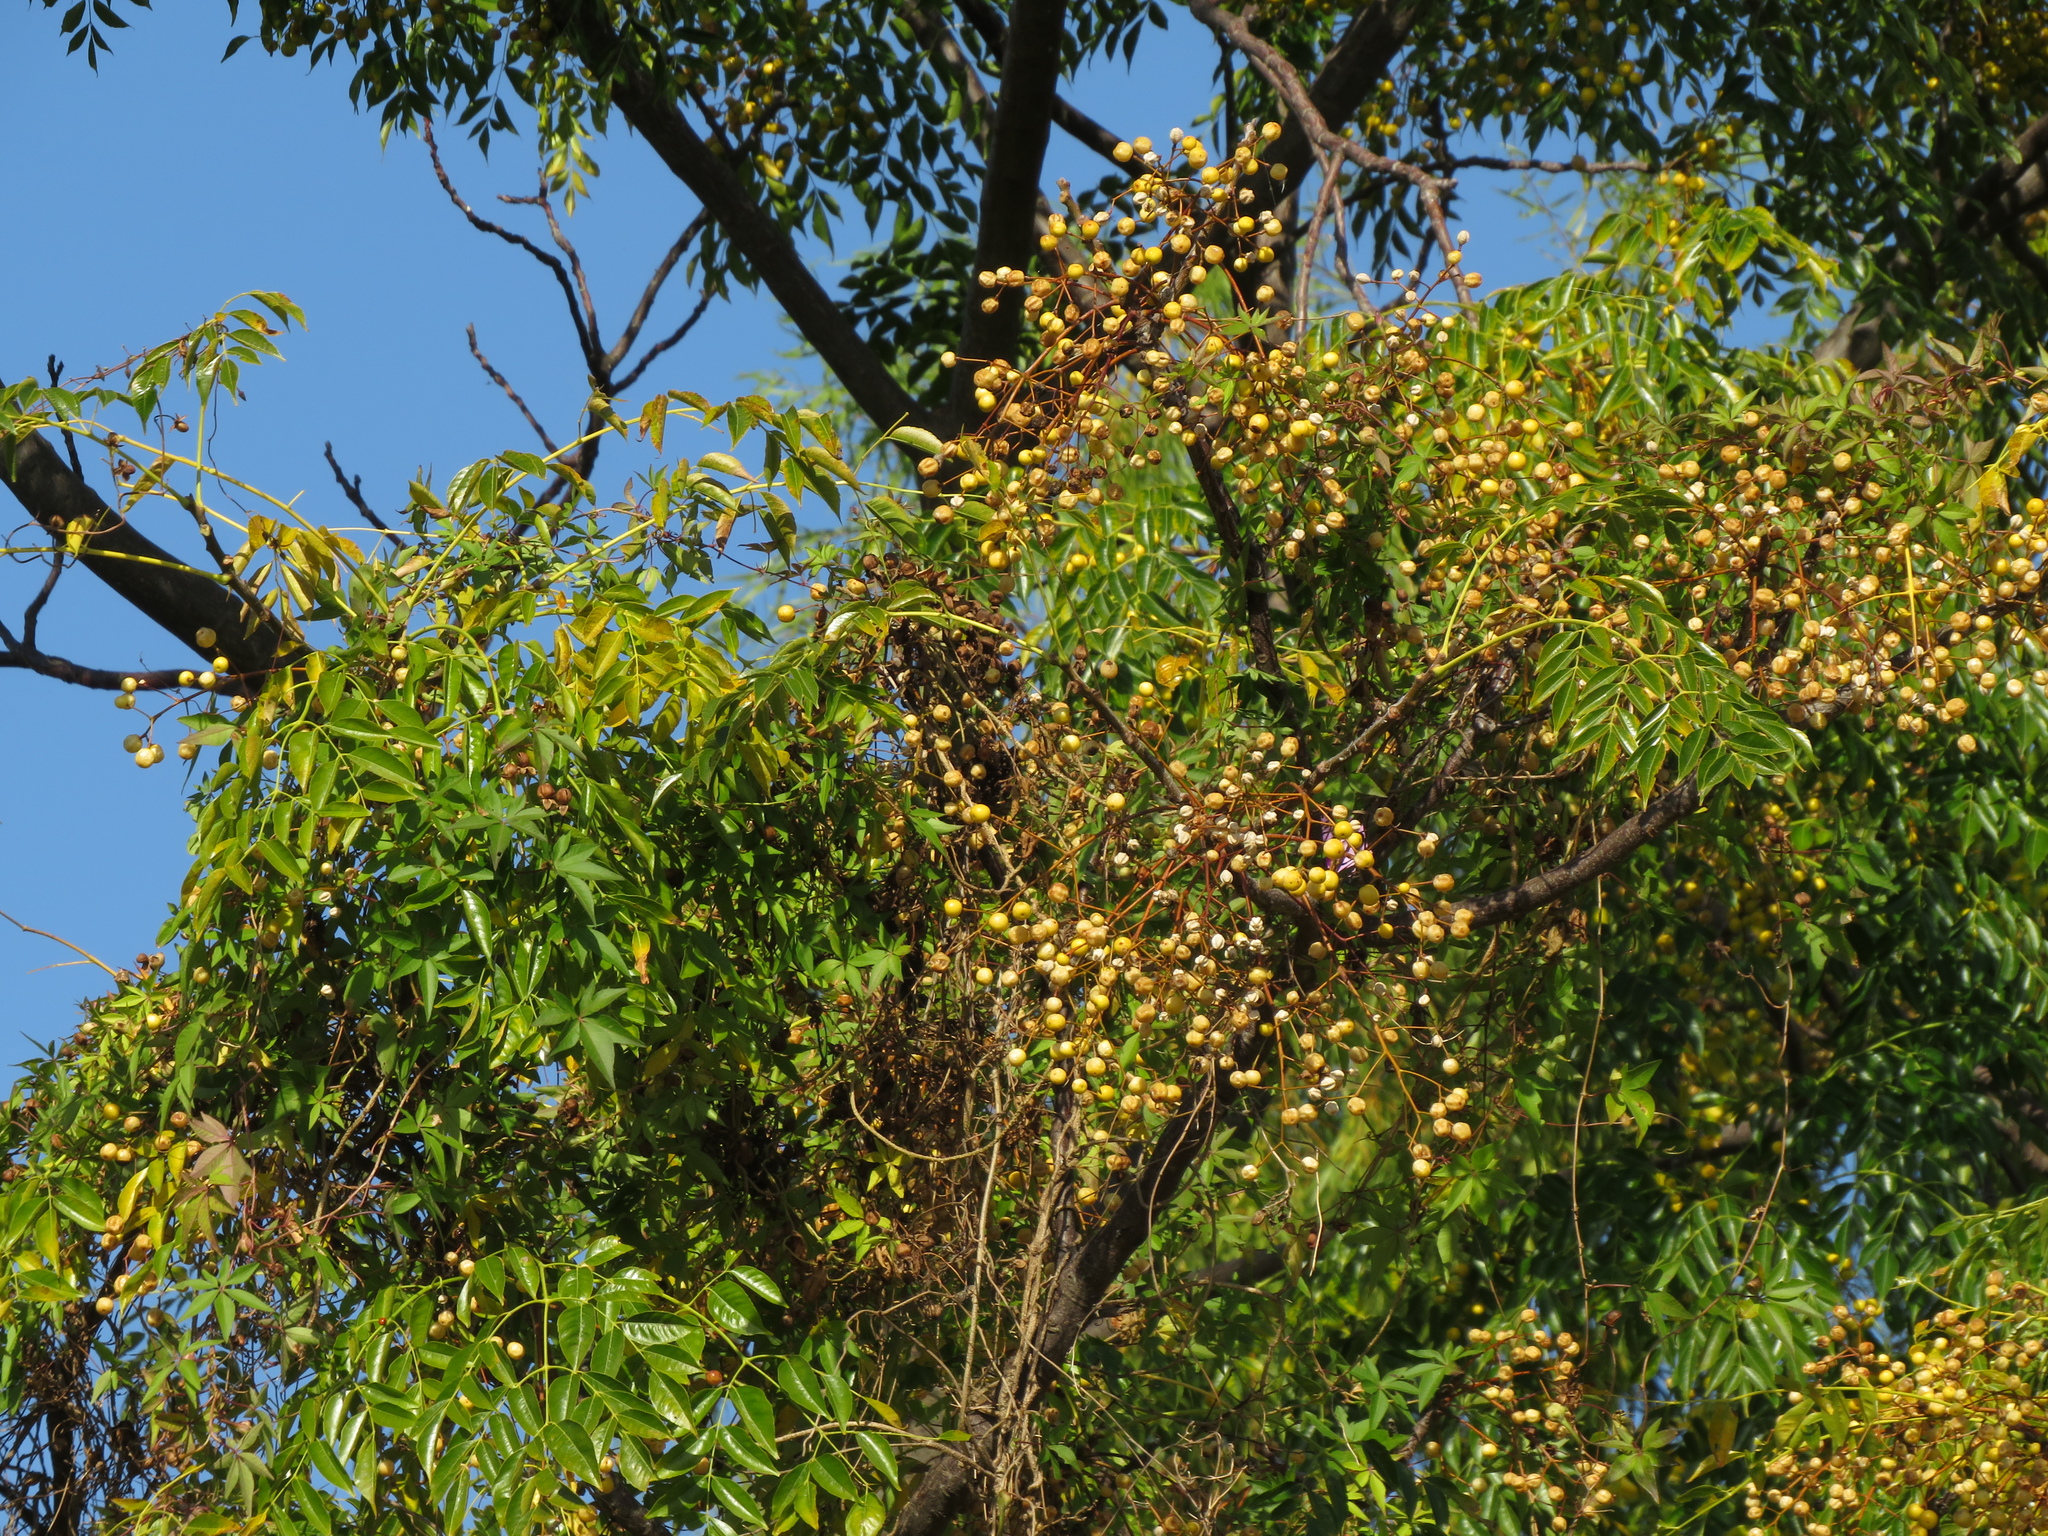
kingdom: Plantae
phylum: Tracheophyta
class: Magnoliopsida
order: Sapindales
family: Meliaceae
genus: Melia
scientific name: Melia azedarach
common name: Chinaberrytree
